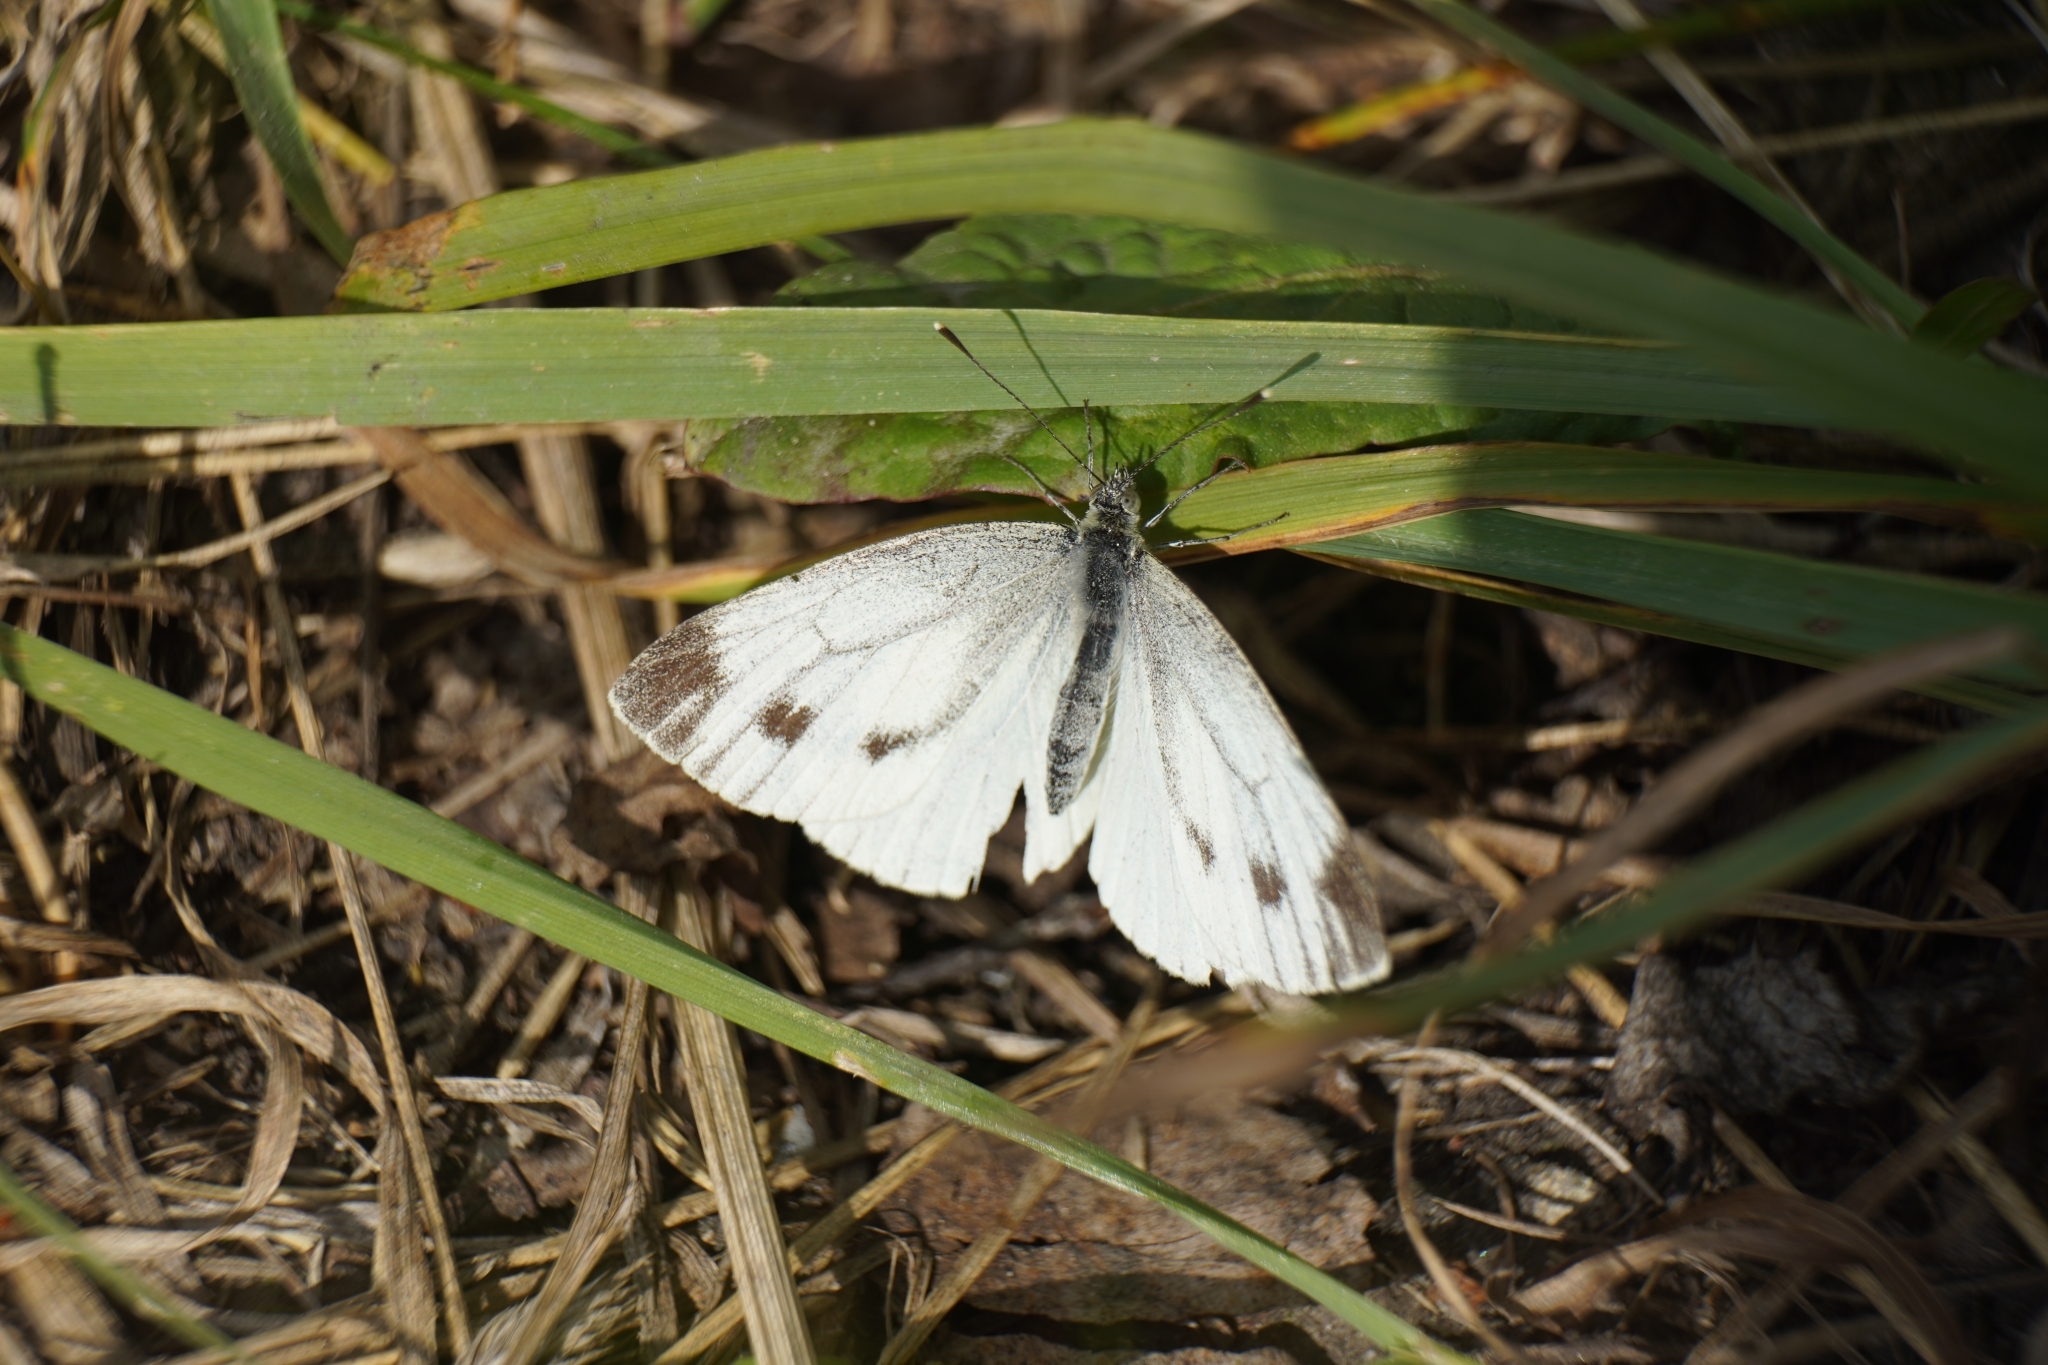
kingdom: Animalia
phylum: Arthropoda
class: Insecta
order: Lepidoptera
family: Pieridae
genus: Pieris
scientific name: Pieris napi
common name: Green-veined white
